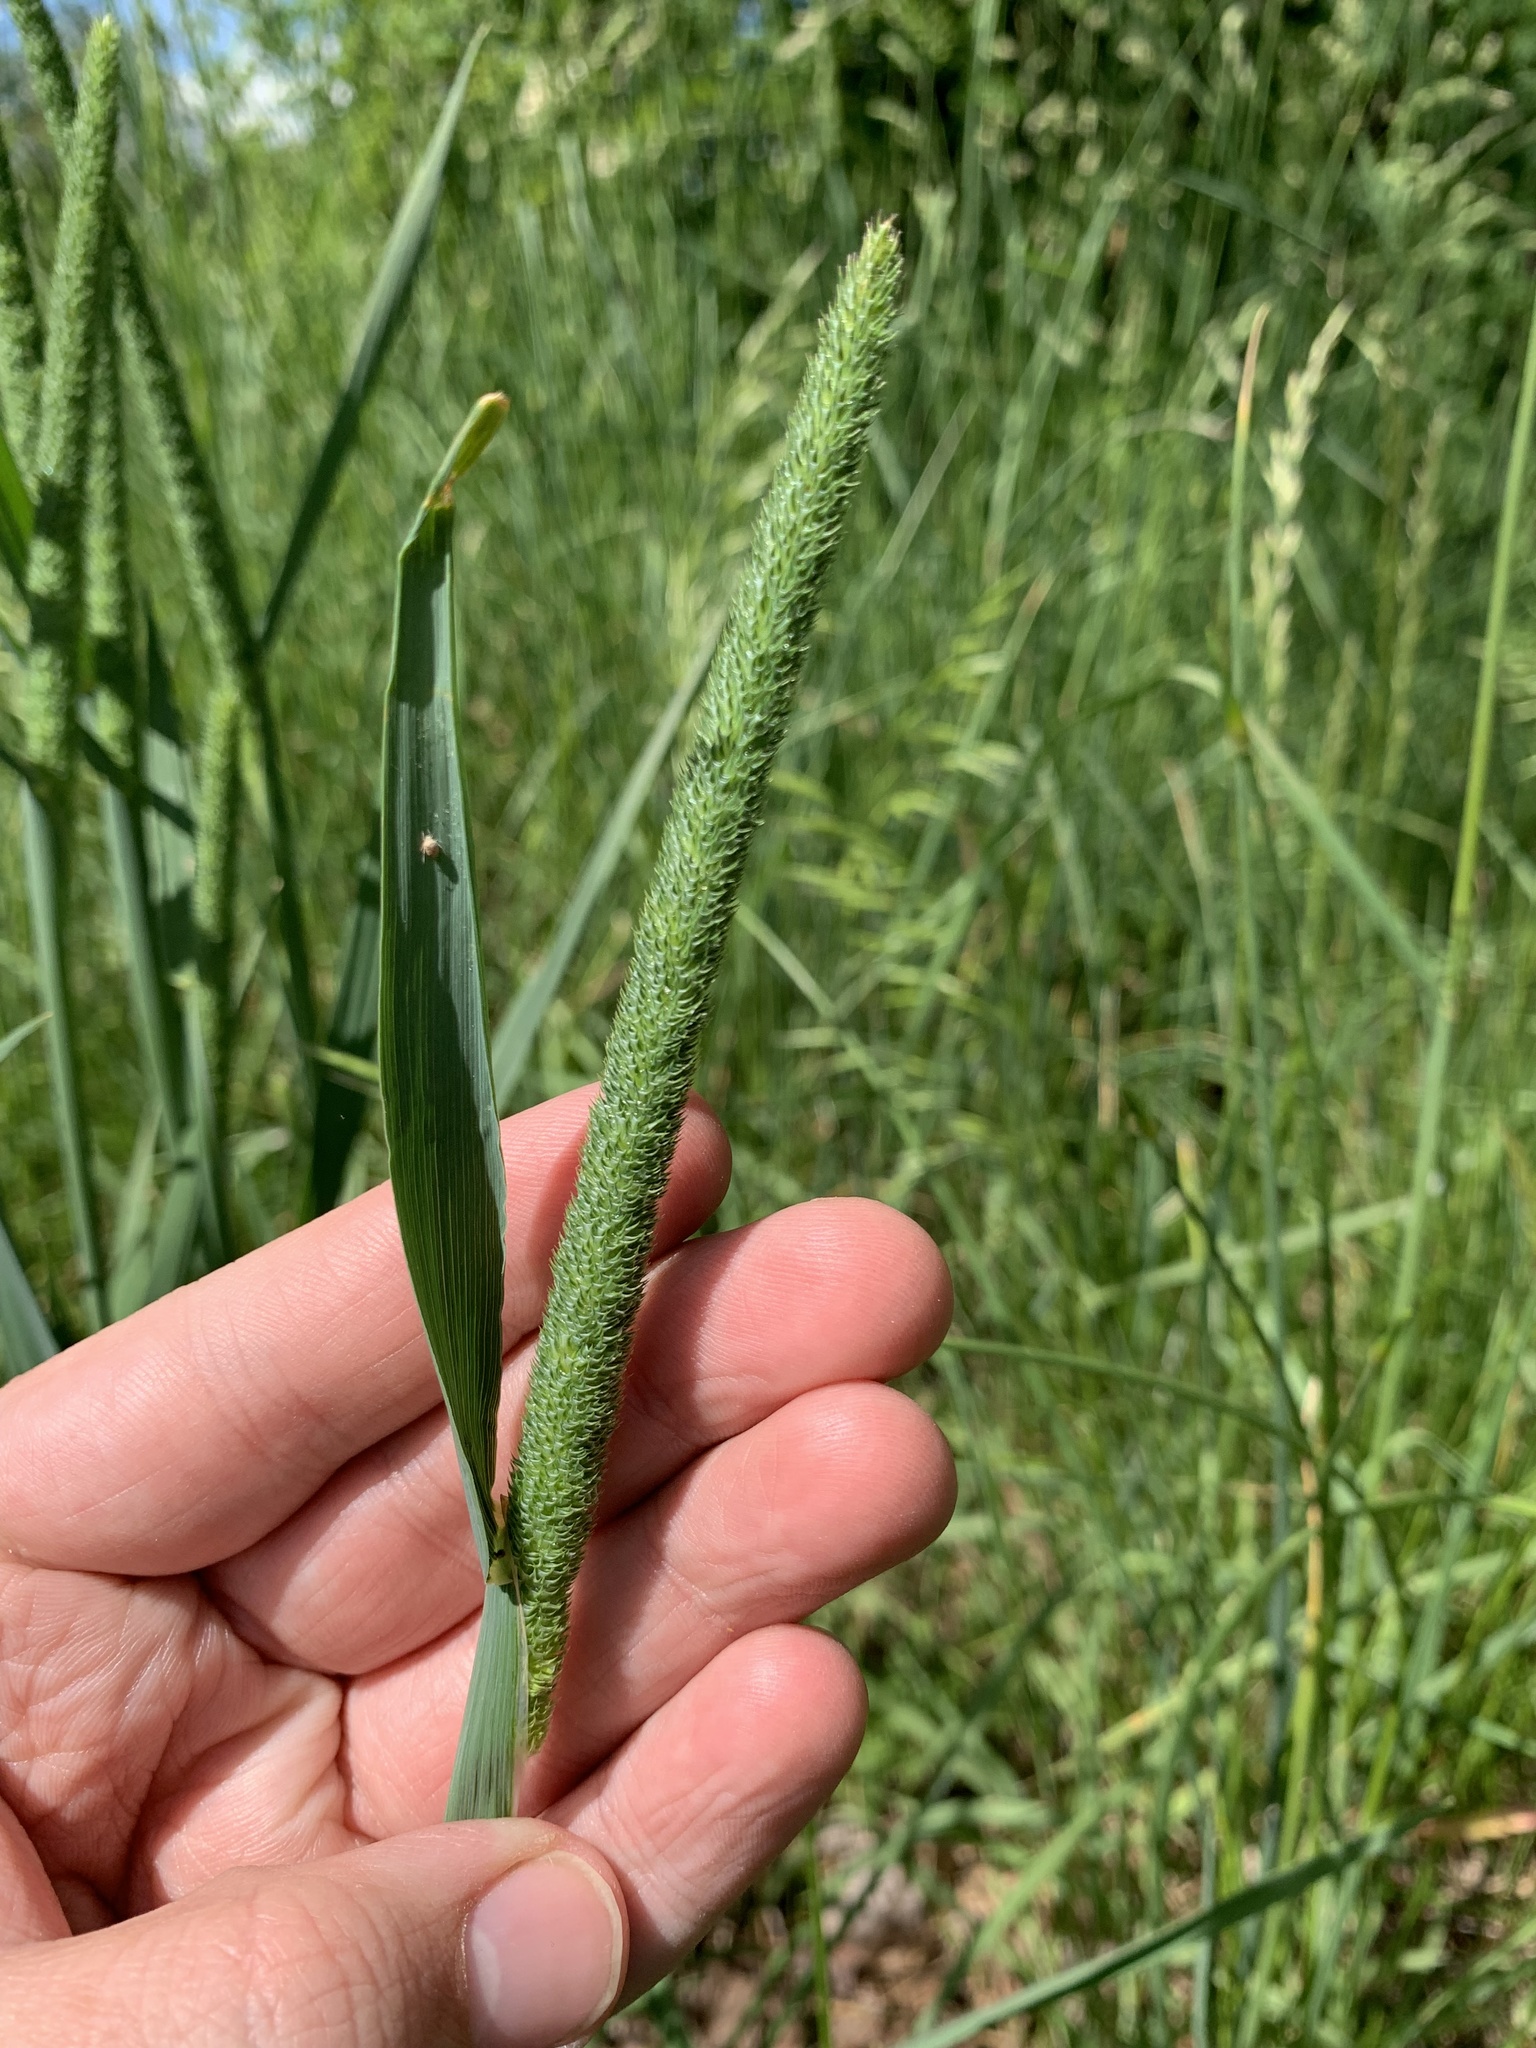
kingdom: Plantae
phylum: Tracheophyta
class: Liliopsida
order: Poales
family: Poaceae
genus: Phleum
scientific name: Phleum pratense
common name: Timothy grass
